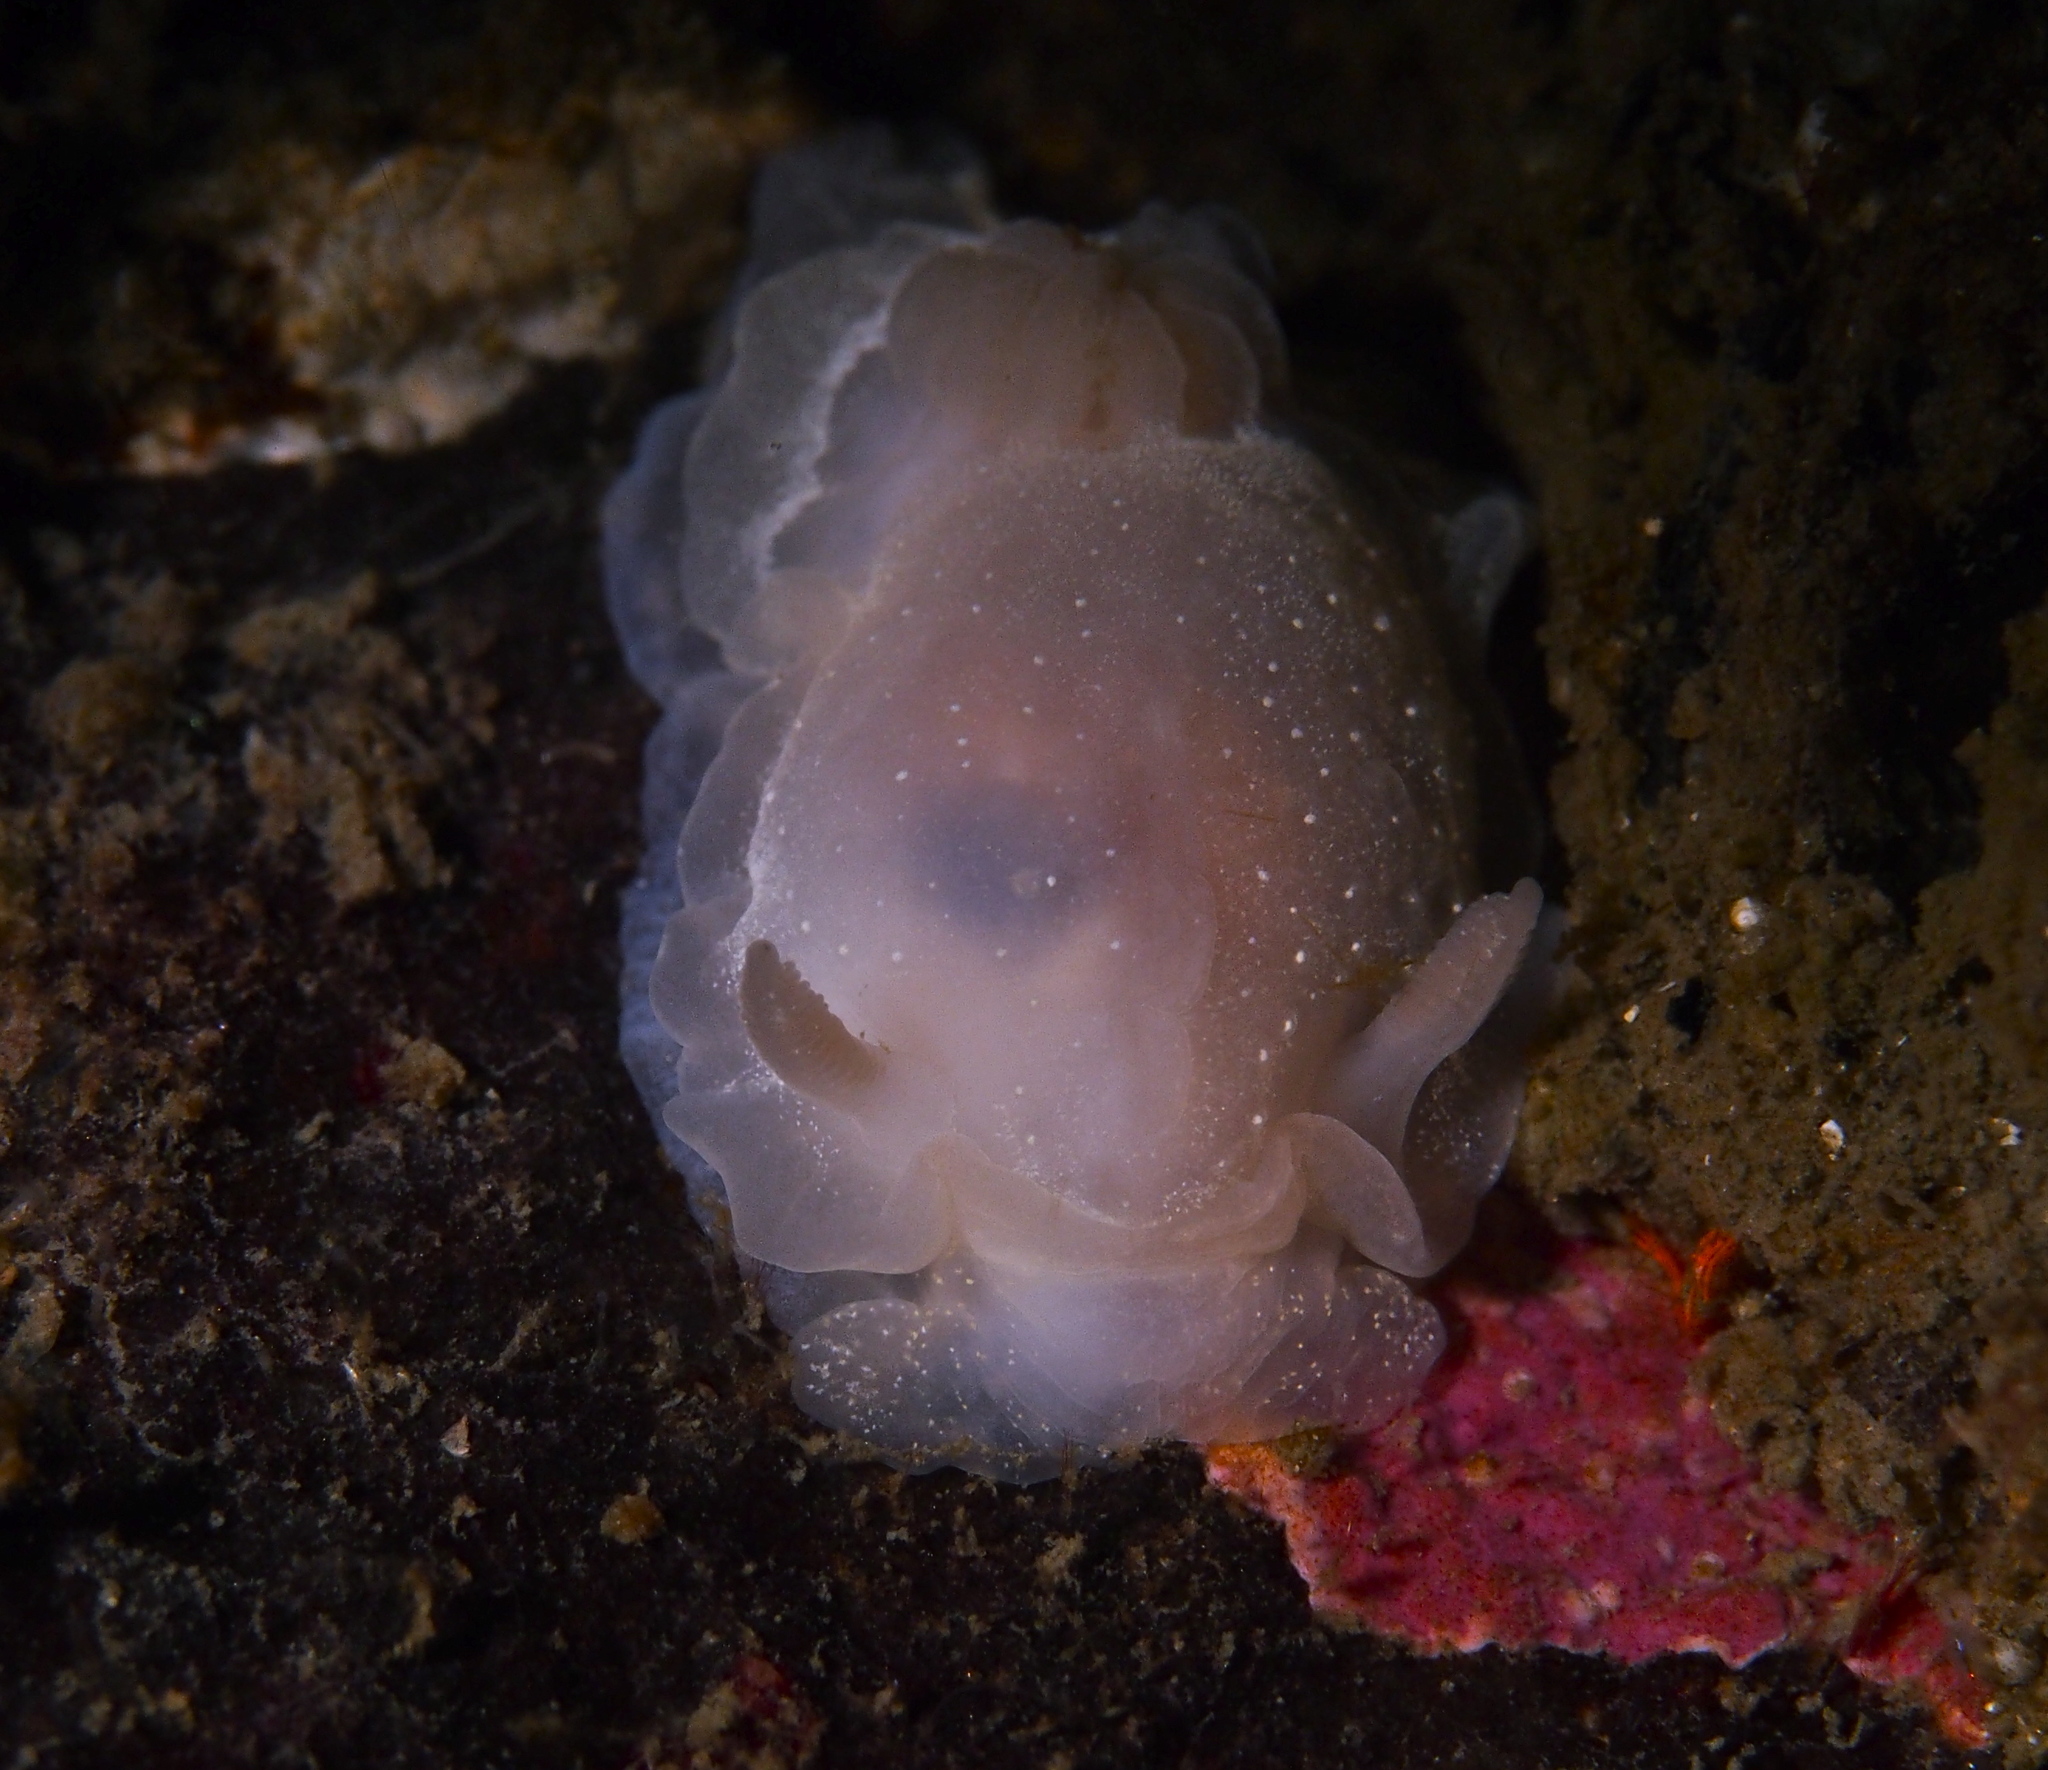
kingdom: Animalia
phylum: Mollusca
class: Gastropoda
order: Nudibranchia
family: Goniodorididae
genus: Okenia
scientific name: Okenia
